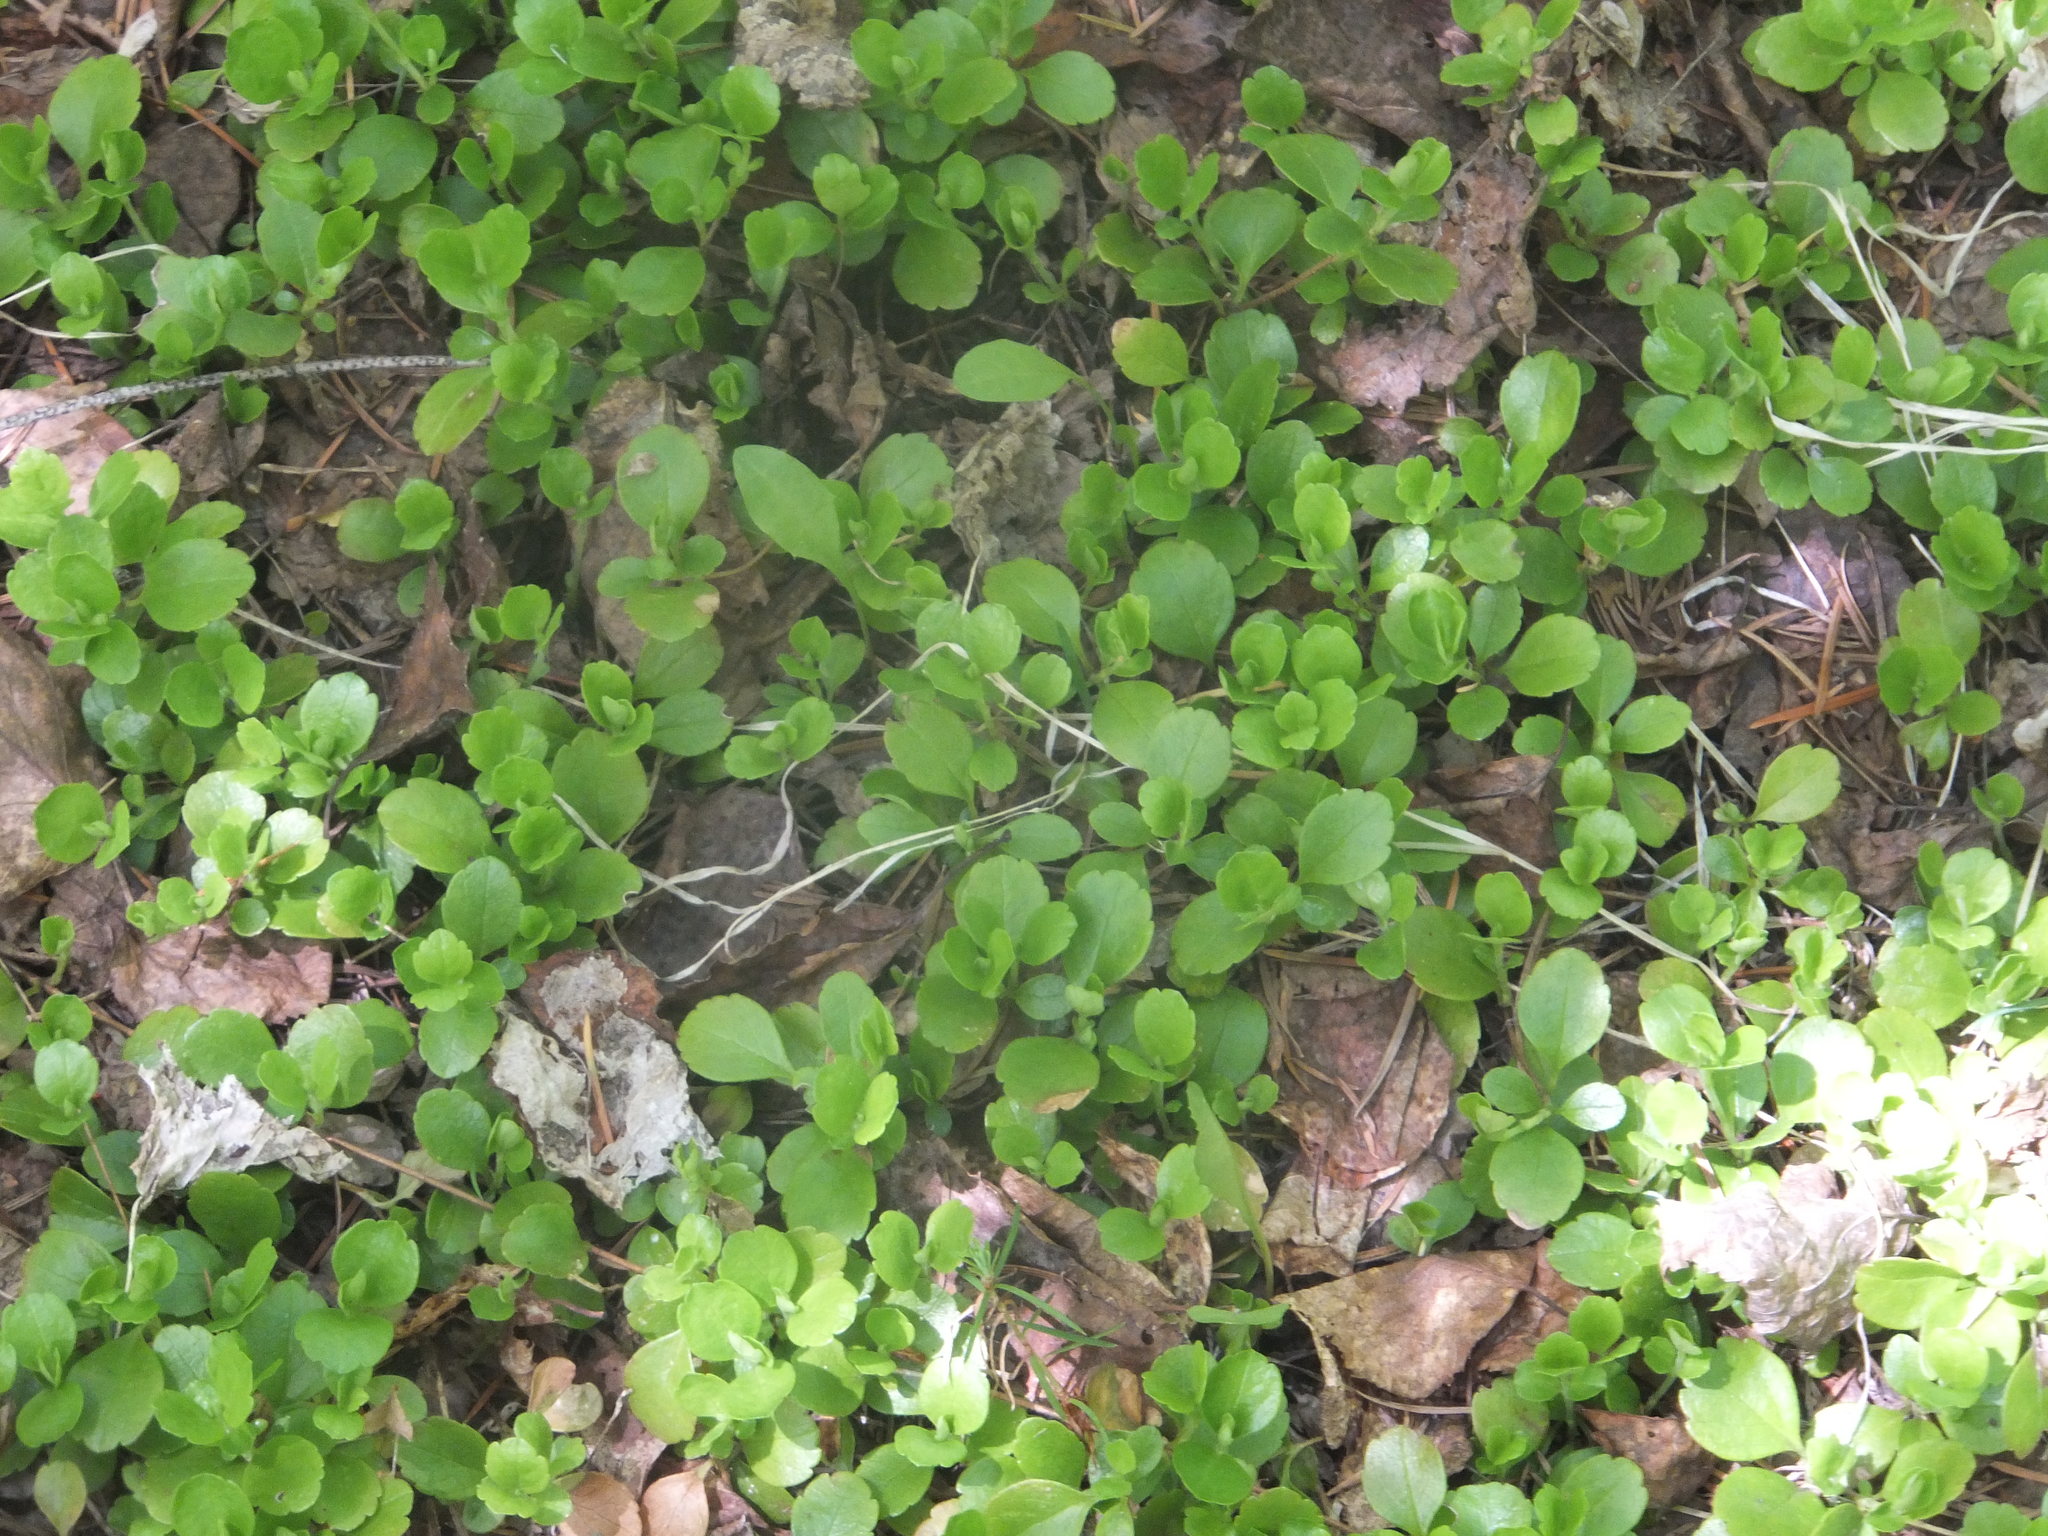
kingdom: Plantae
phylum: Tracheophyta
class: Magnoliopsida
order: Dipsacales
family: Caprifoliaceae
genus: Linnaea
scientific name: Linnaea borealis
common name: Twinflower
